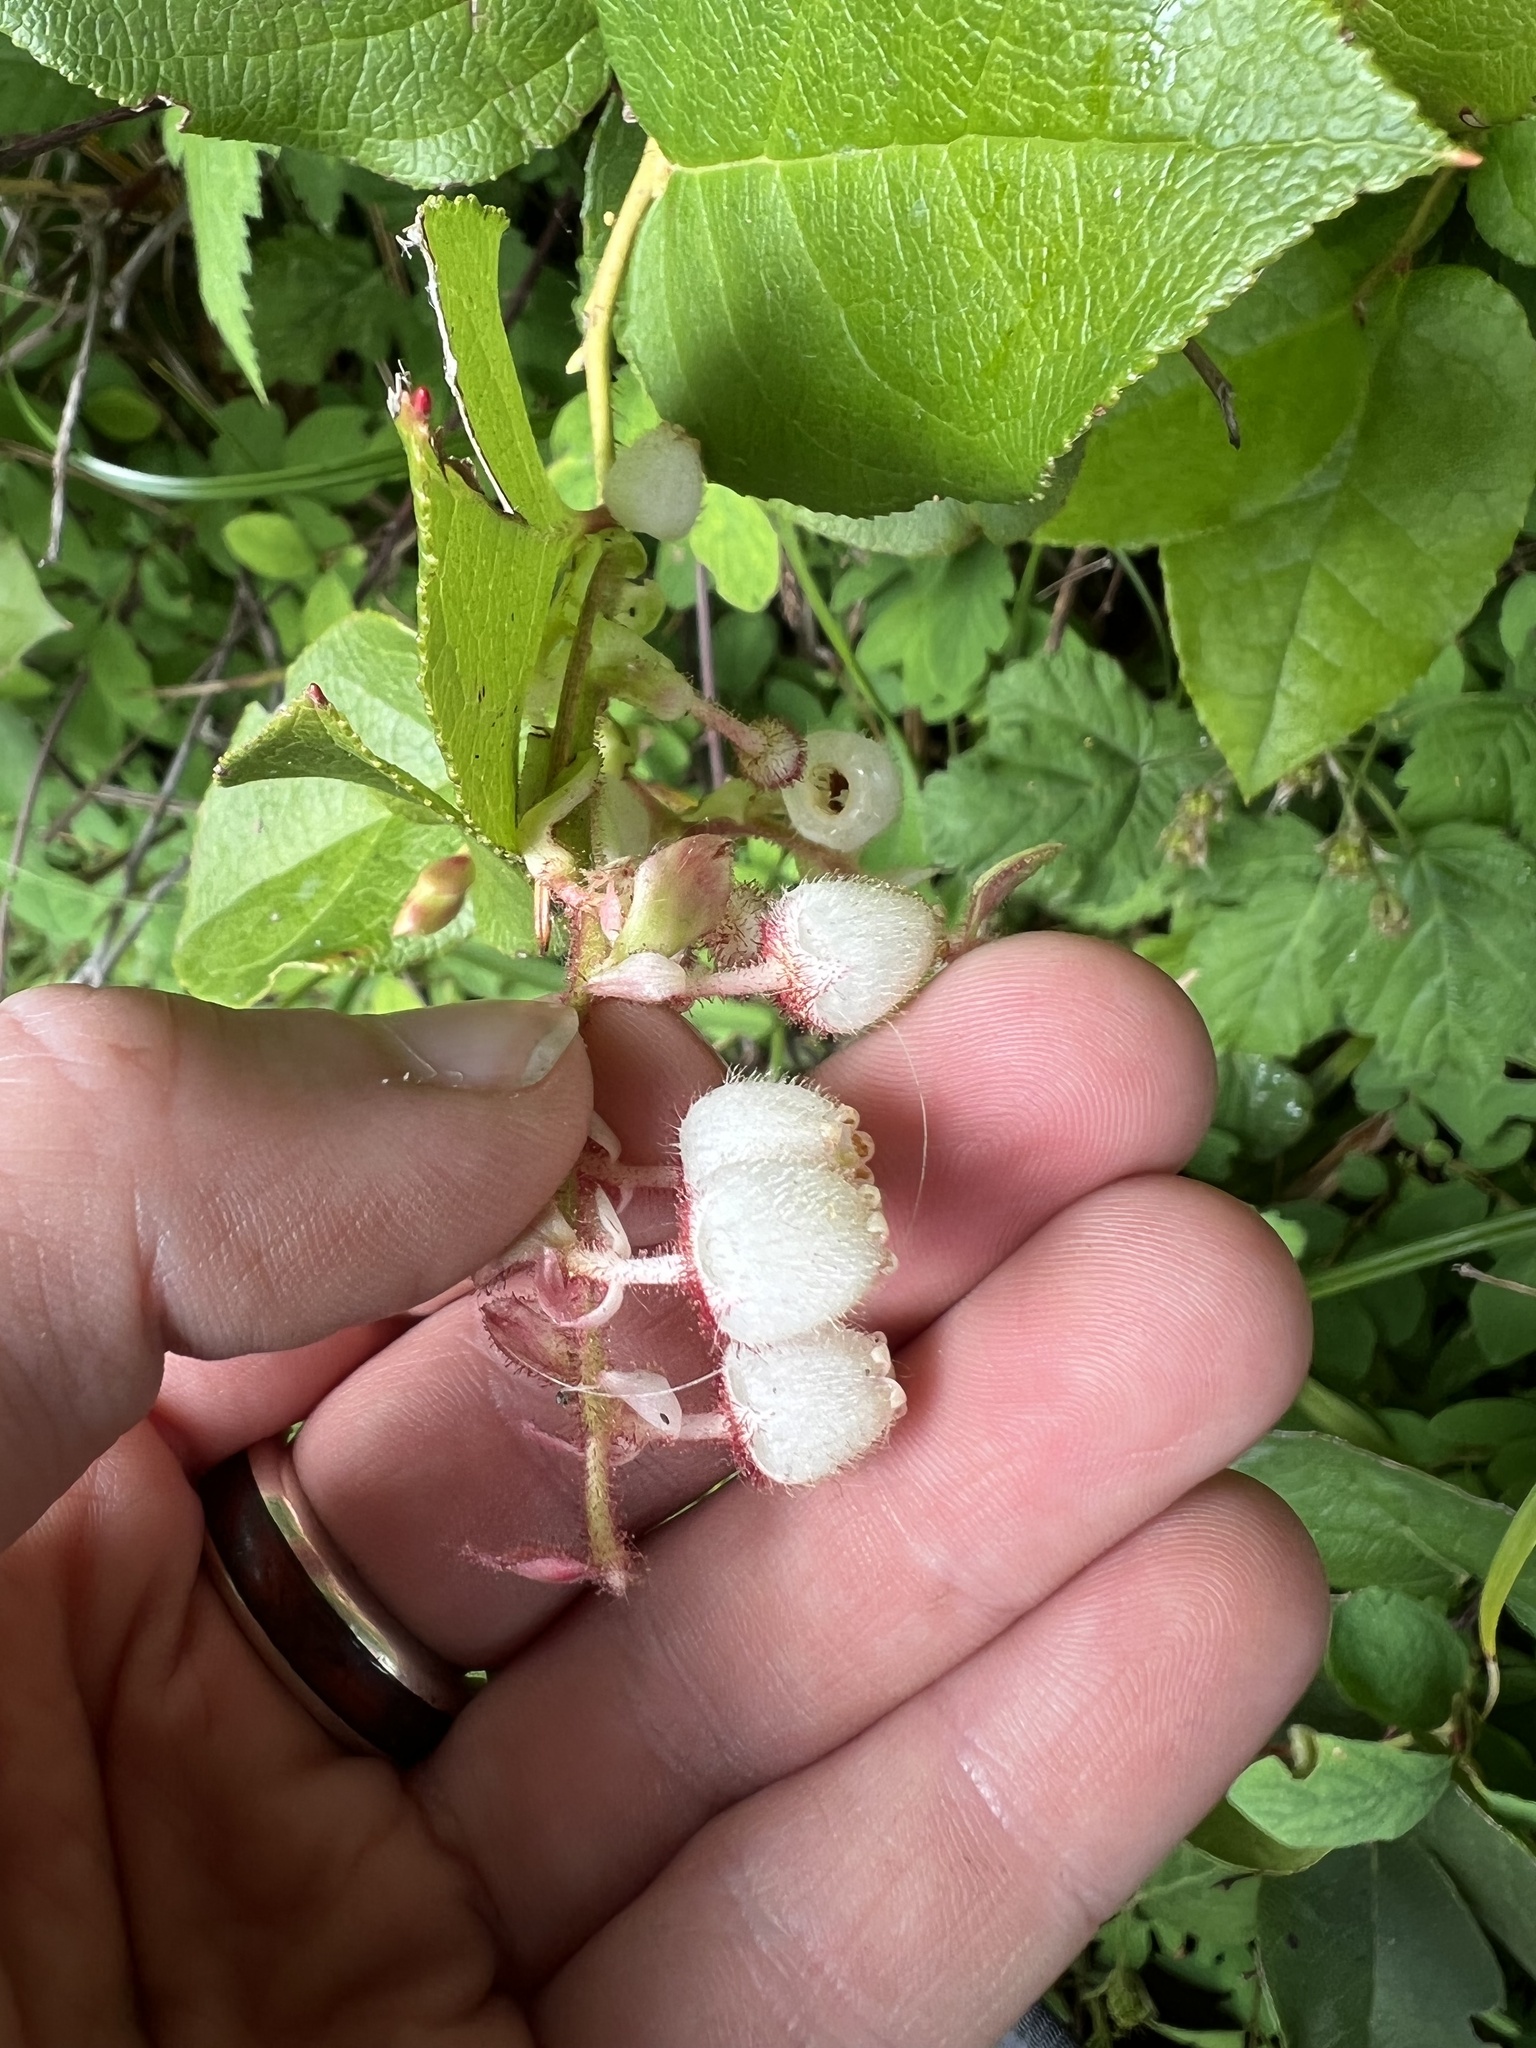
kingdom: Plantae
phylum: Tracheophyta
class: Magnoliopsida
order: Ericales
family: Ericaceae
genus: Gaultheria
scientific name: Gaultheria shallon
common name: Shallon
